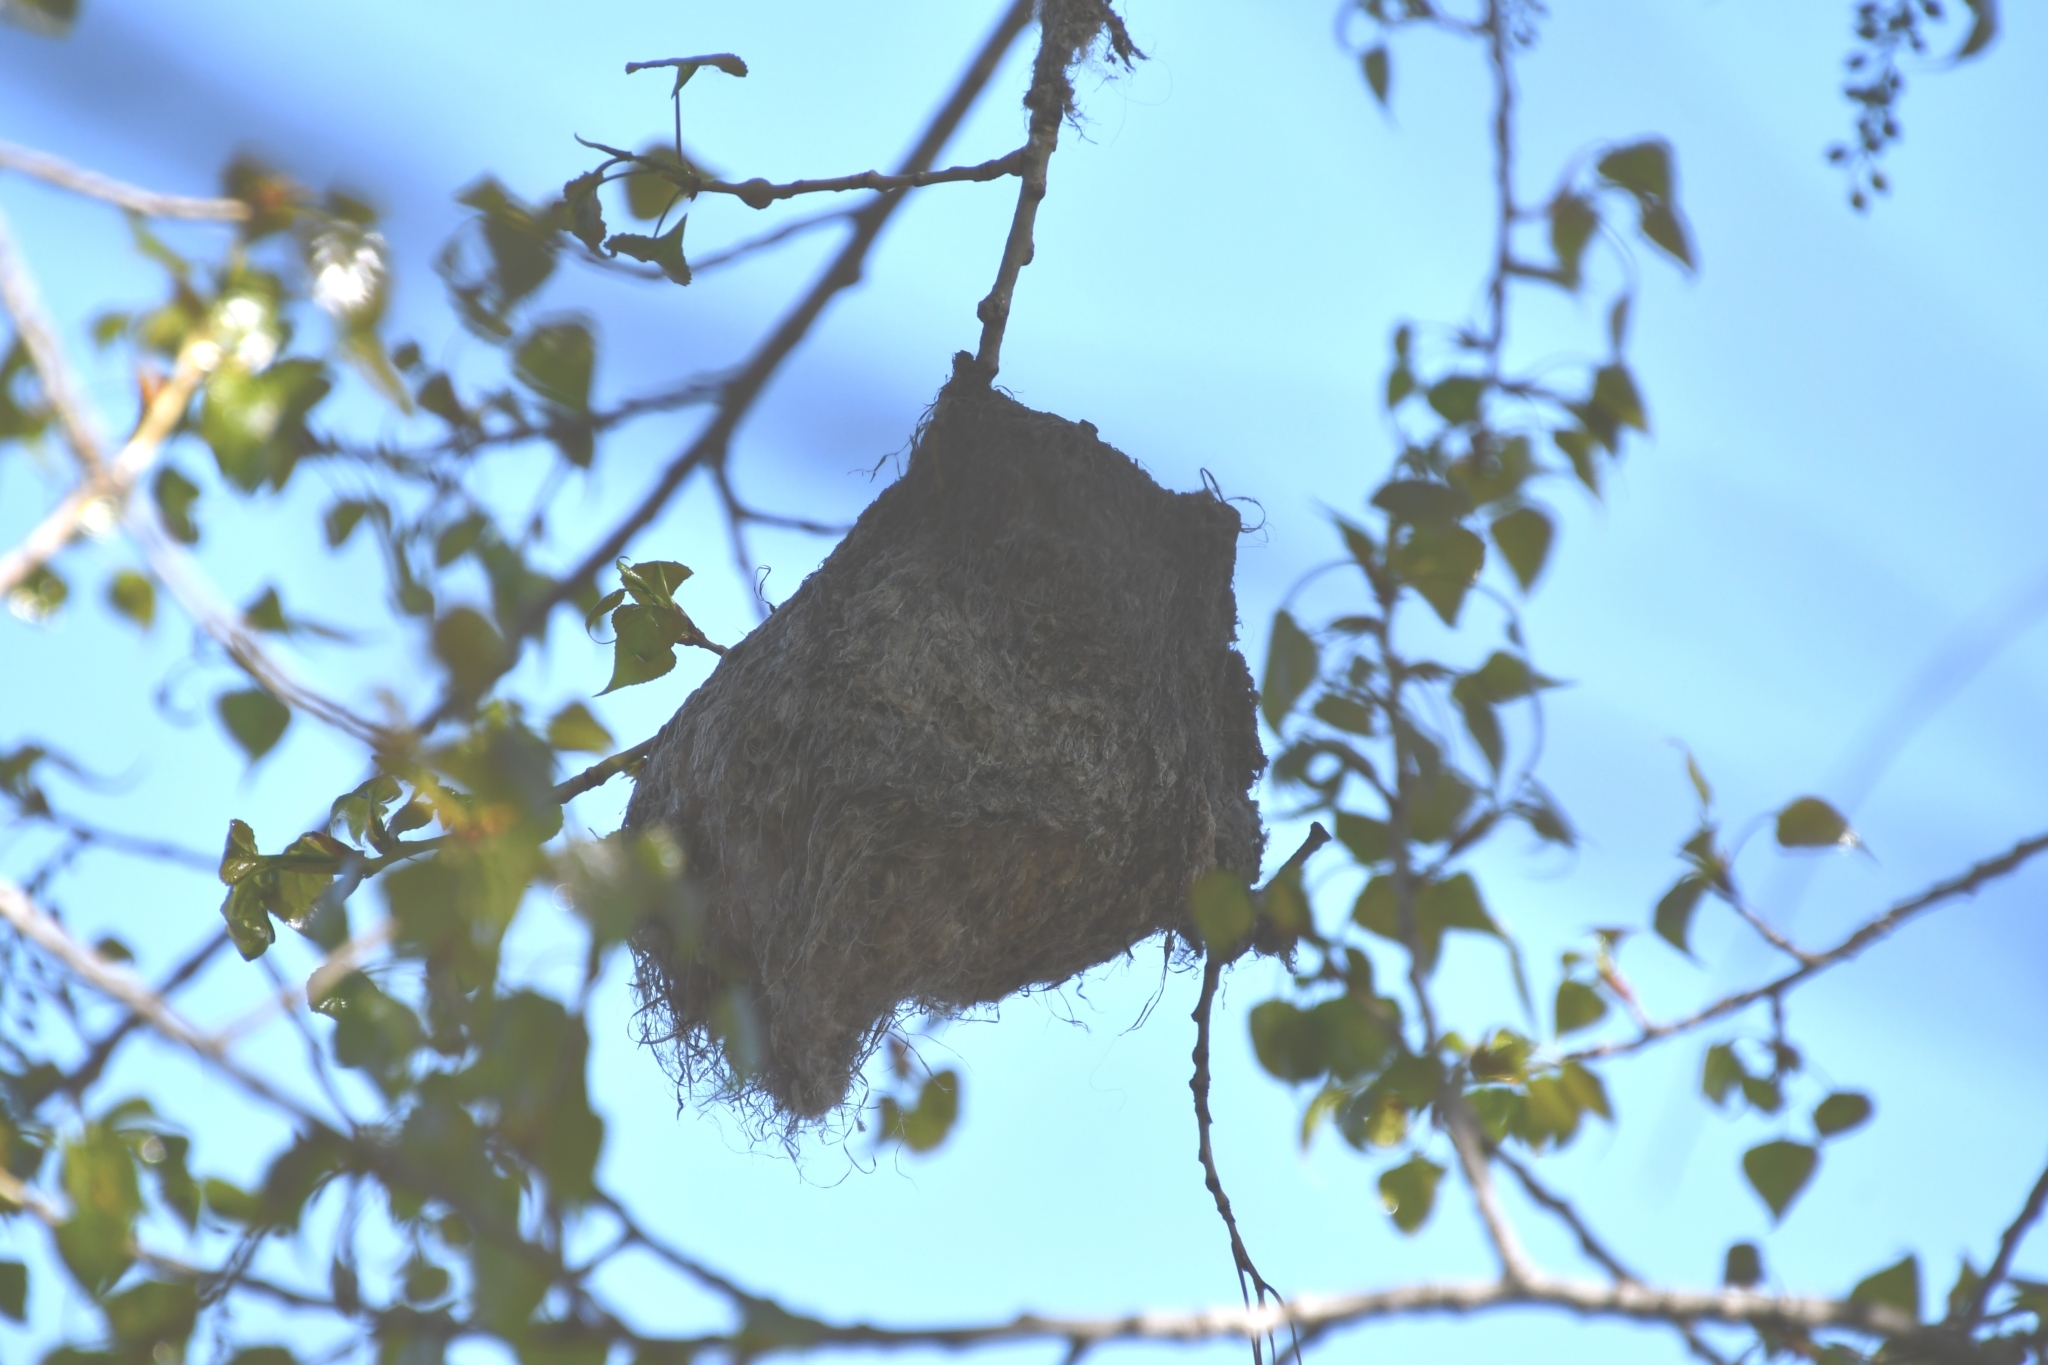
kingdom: Animalia
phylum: Chordata
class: Aves
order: Passeriformes
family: Remizidae
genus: Remiz
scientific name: Remiz pendulinus
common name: Eurasian penduline tit
